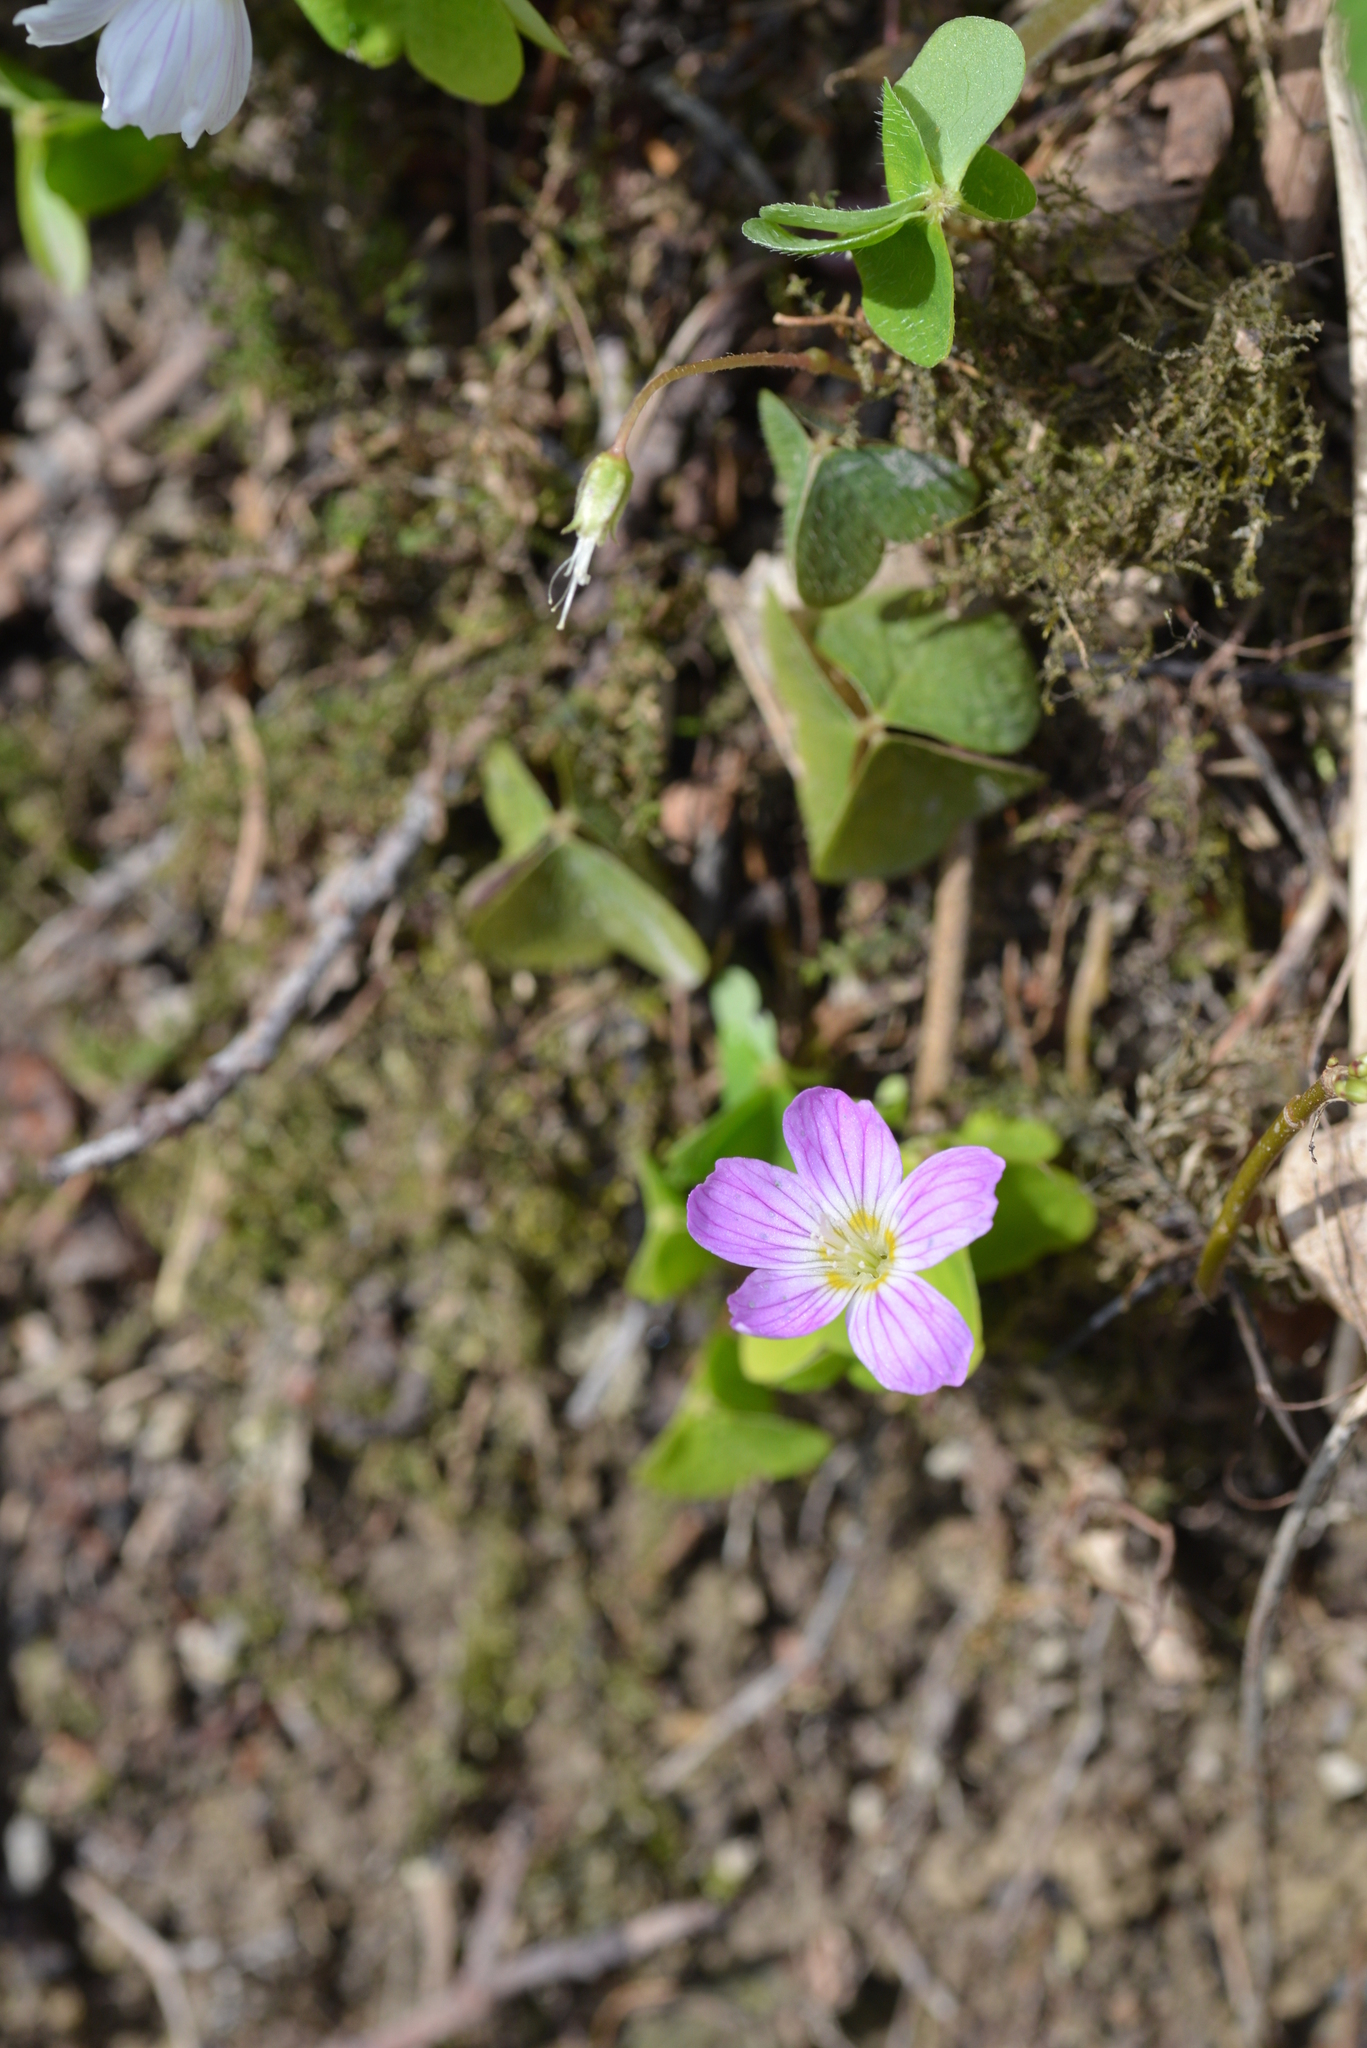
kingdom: Plantae
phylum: Tracheophyta
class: Magnoliopsida
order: Oxalidales
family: Oxalidaceae
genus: Oxalis
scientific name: Oxalis acetosella
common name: Wood-sorrel
